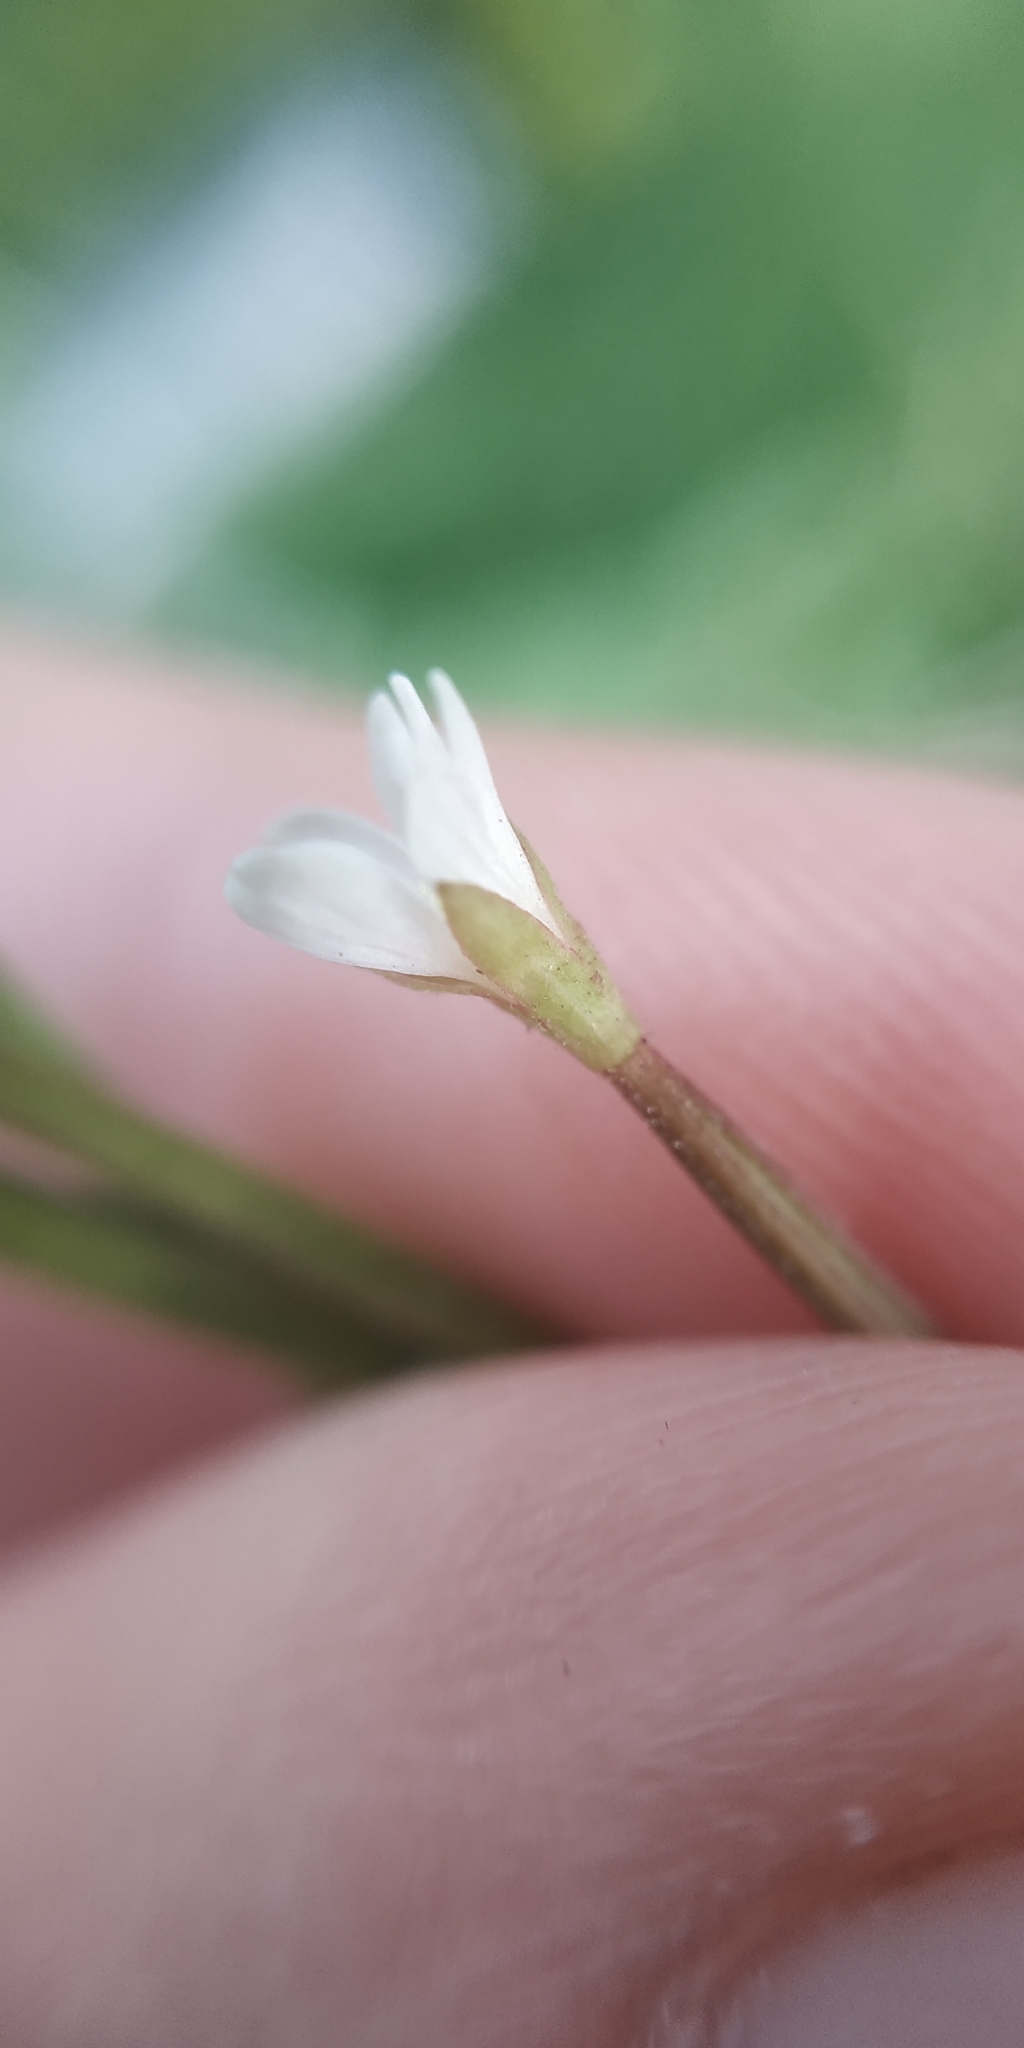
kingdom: Plantae
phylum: Tracheophyta
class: Magnoliopsida
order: Myrtales
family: Onagraceae
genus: Epilobium
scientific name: Epilobium pseudorubescens
